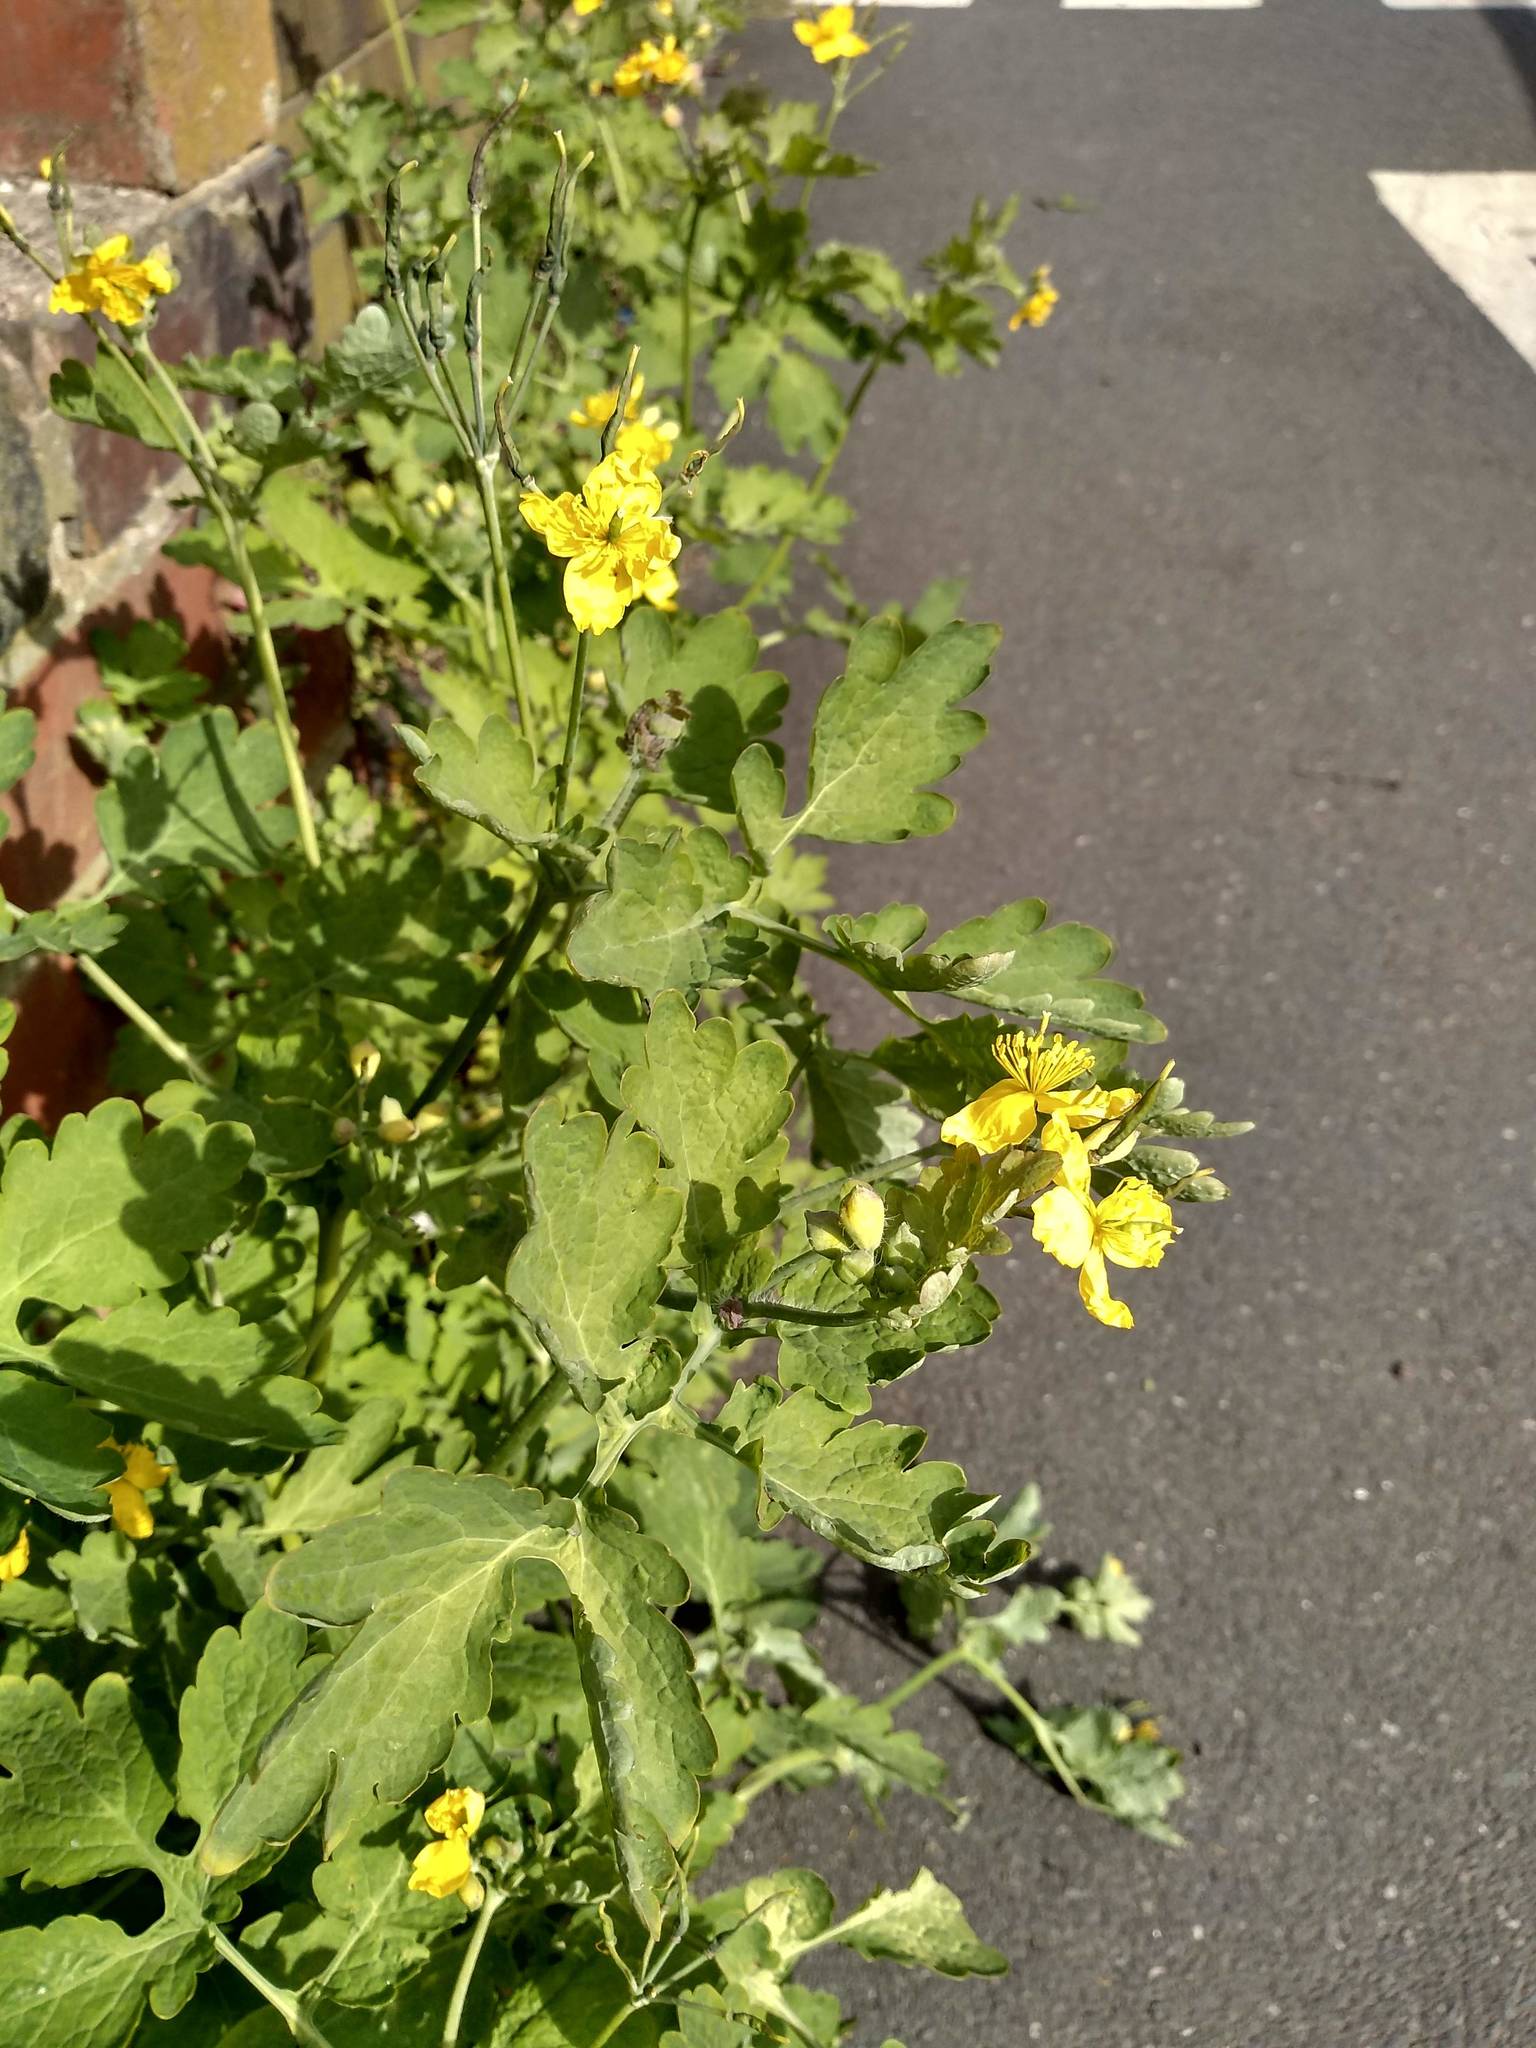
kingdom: Plantae
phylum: Tracheophyta
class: Magnoliopsida
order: Ranunculales
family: Papaveraceae
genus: Chelidonium
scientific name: Chelidonium majus
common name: Greater celandine
